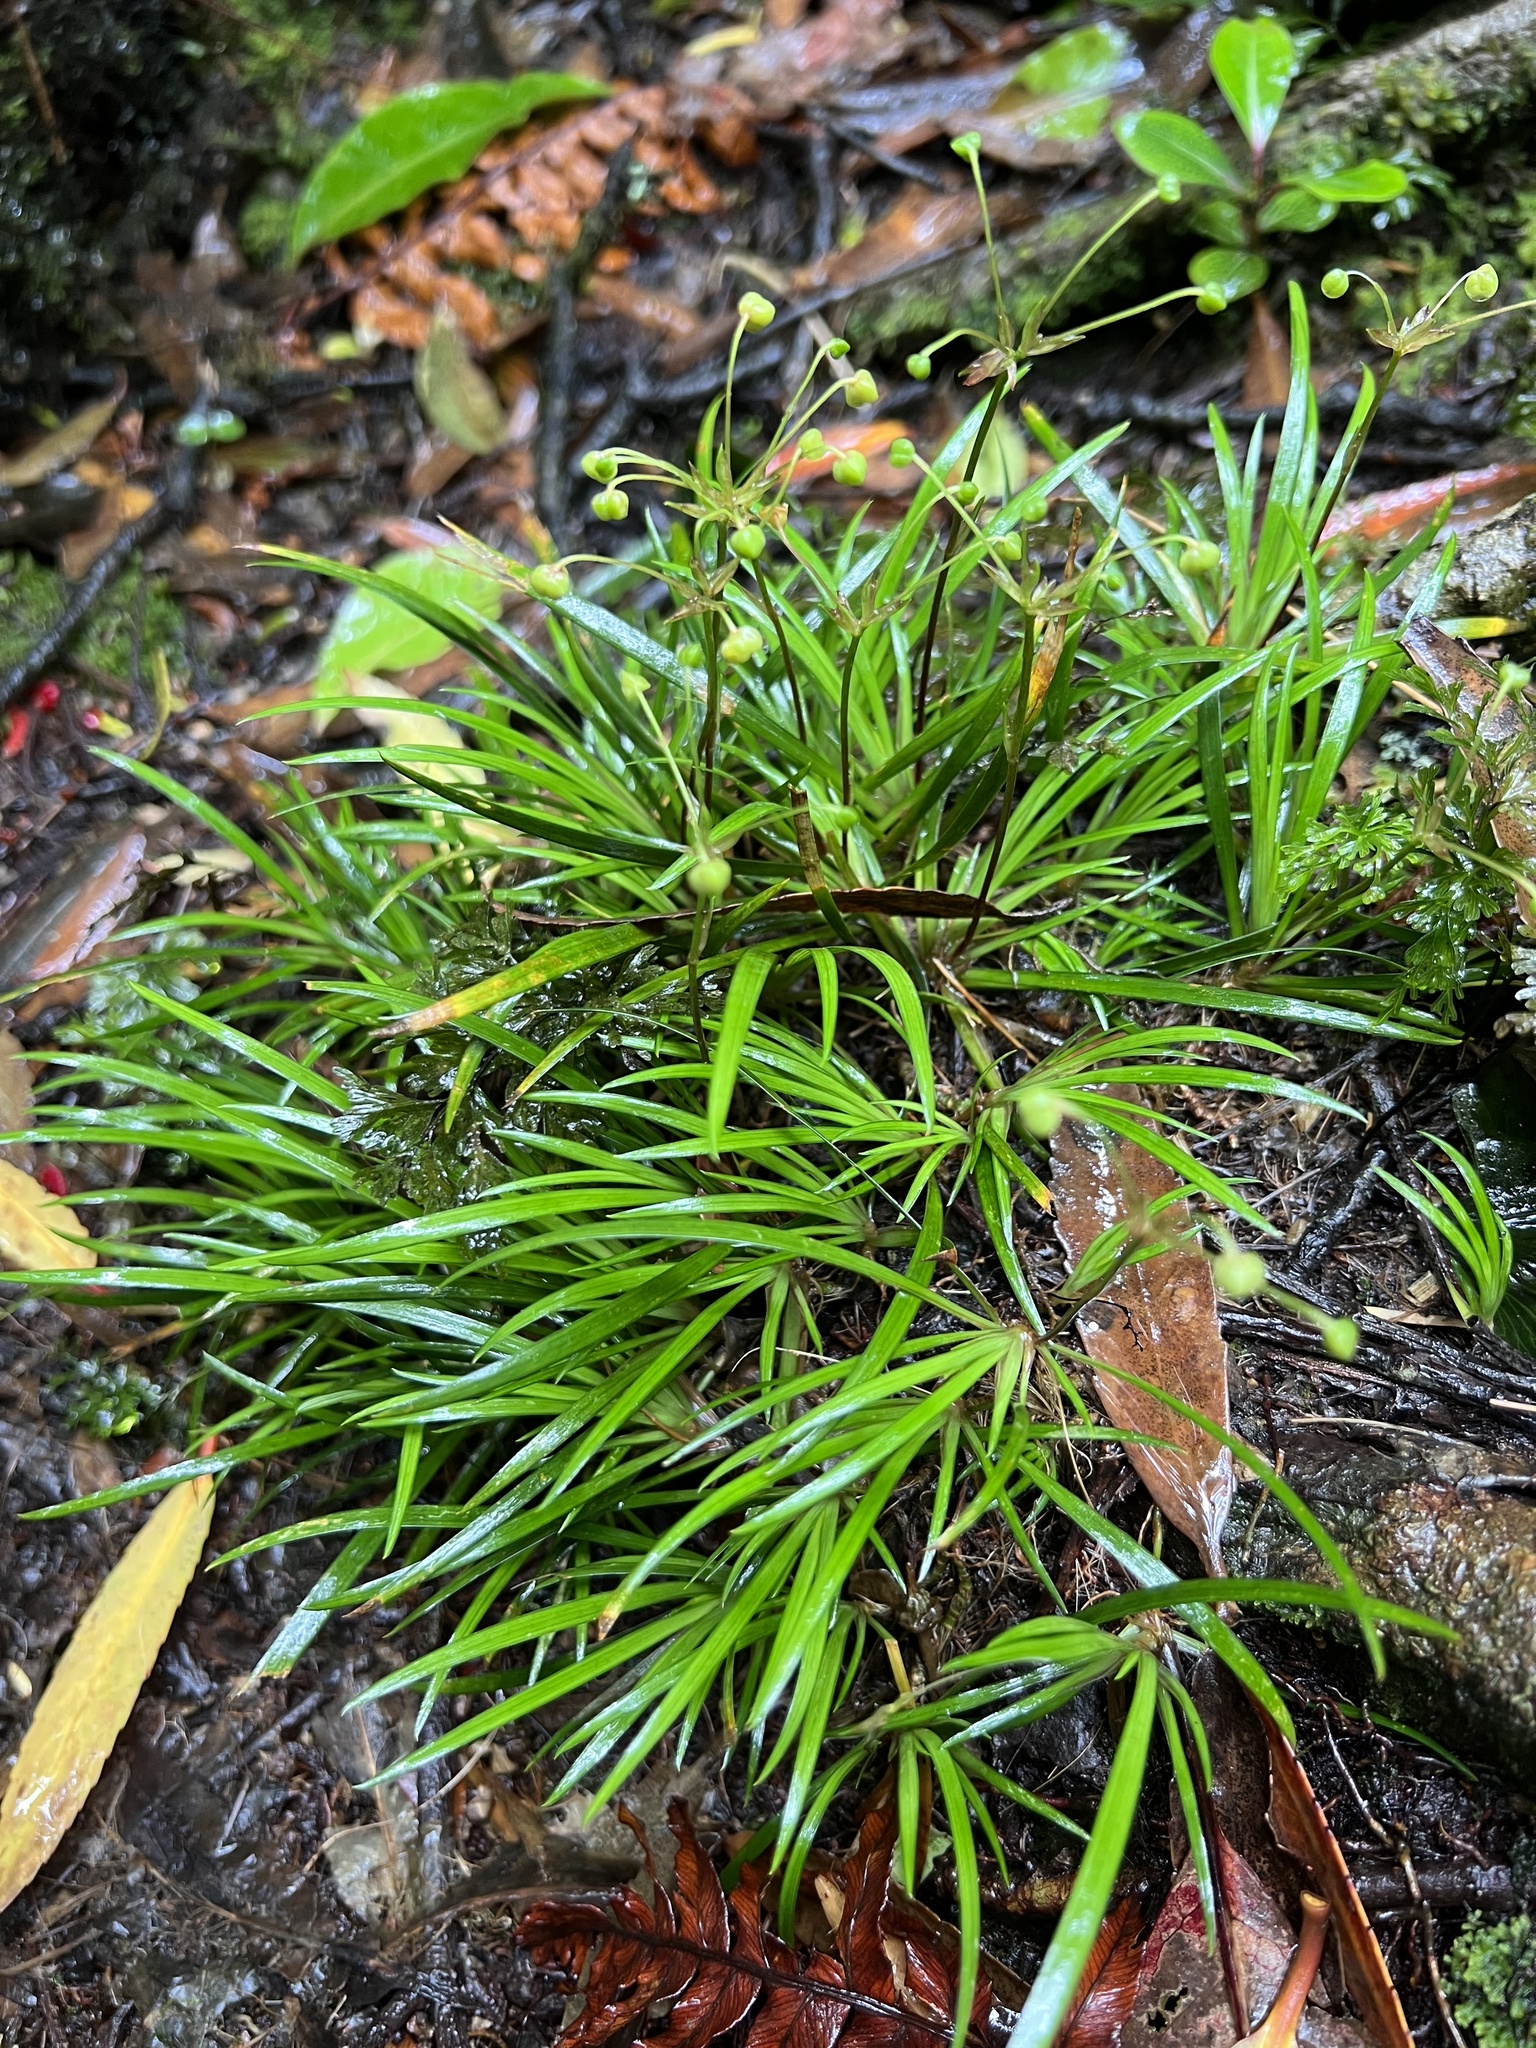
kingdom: Plantae
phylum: Tracheophyta
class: Liliopsida
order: Asparagales
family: Iridaceae
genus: Libertia
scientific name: Libertia micrantha
